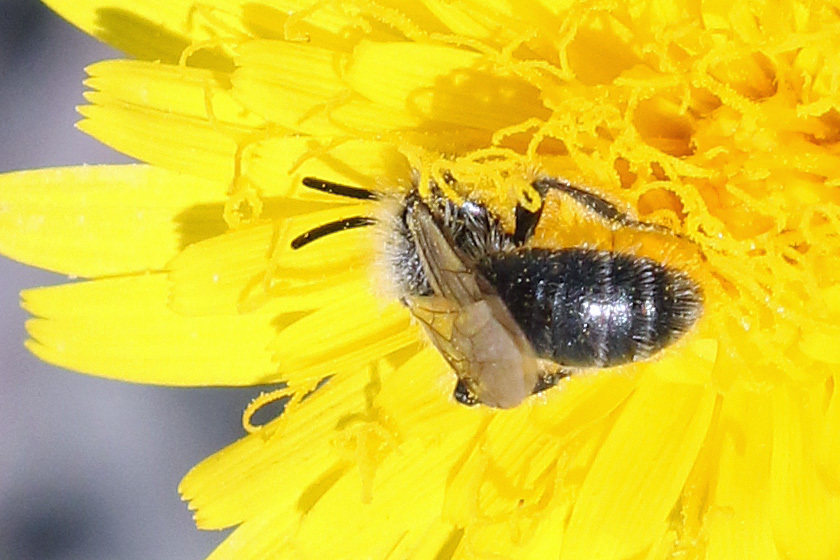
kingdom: Animalia
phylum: Arthropoda
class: Insecta
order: Hymenoptera
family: Andrenidae
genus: Andrena
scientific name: Andrena
